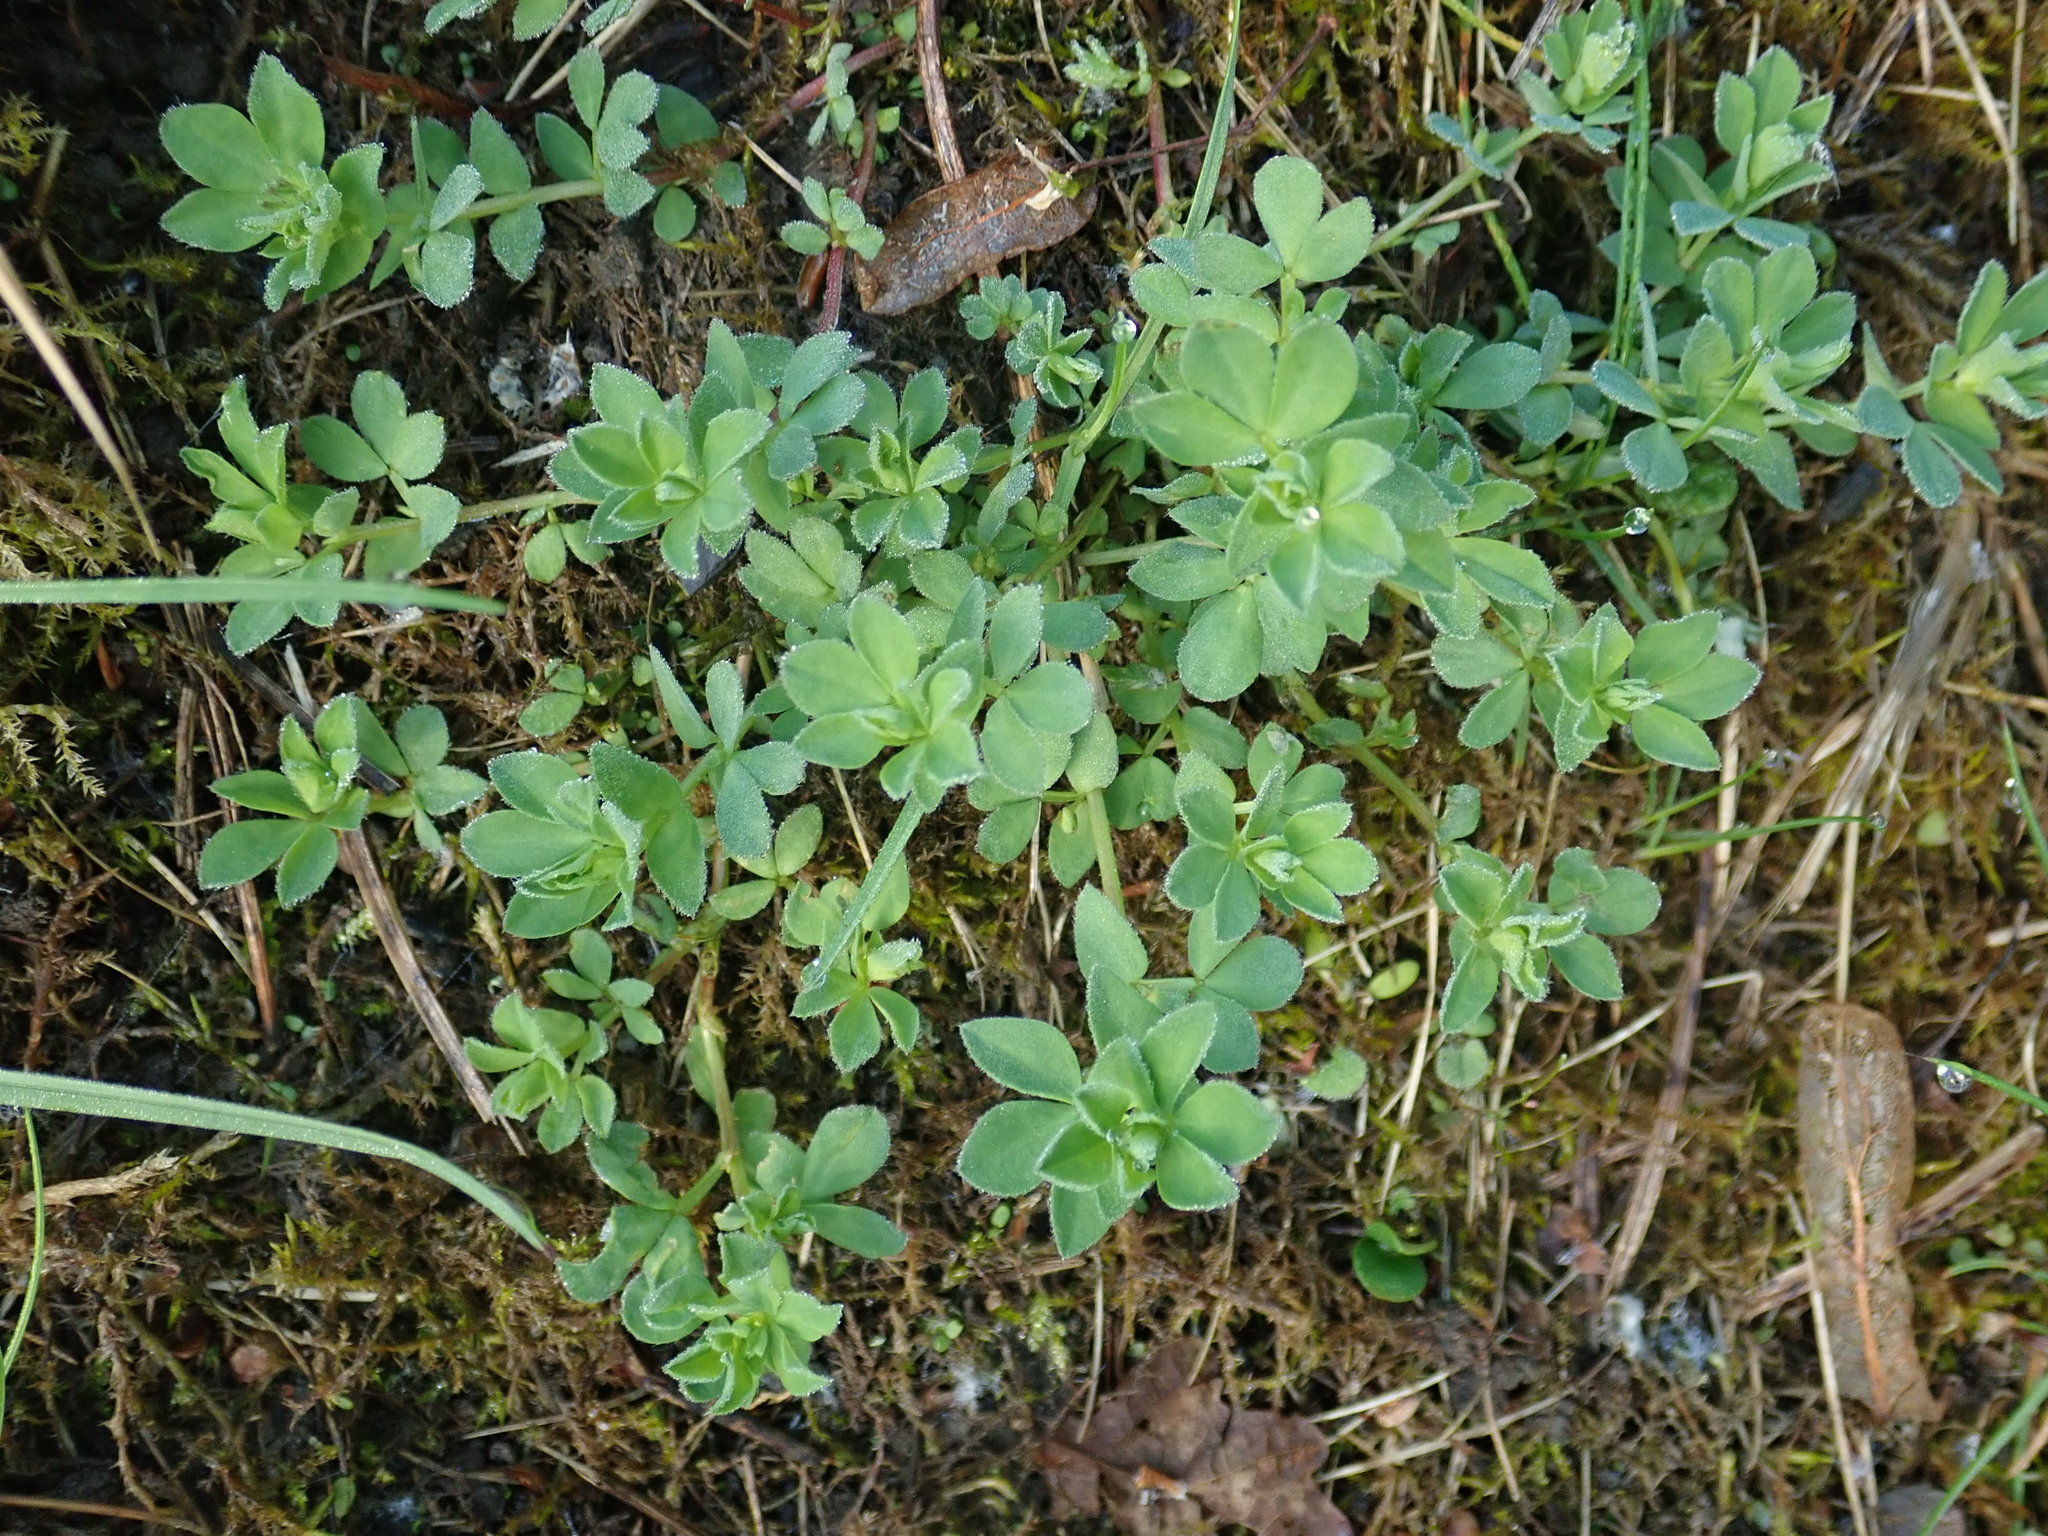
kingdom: Plantae
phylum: Tracheophyta
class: Magnoliopsida
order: Fabales
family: Fabaceae
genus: Lotus
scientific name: Lotus corniculatus
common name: Common bird's-foot-trefoil
